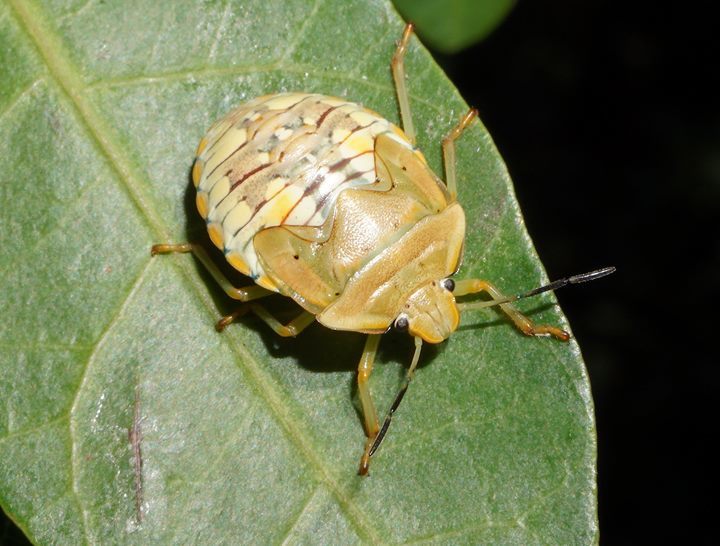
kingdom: Animalia
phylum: Arthropoda
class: Insecta
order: Hemiptera
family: Pentatomidae
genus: Acrosternum
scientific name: Acrosternum marginatum
